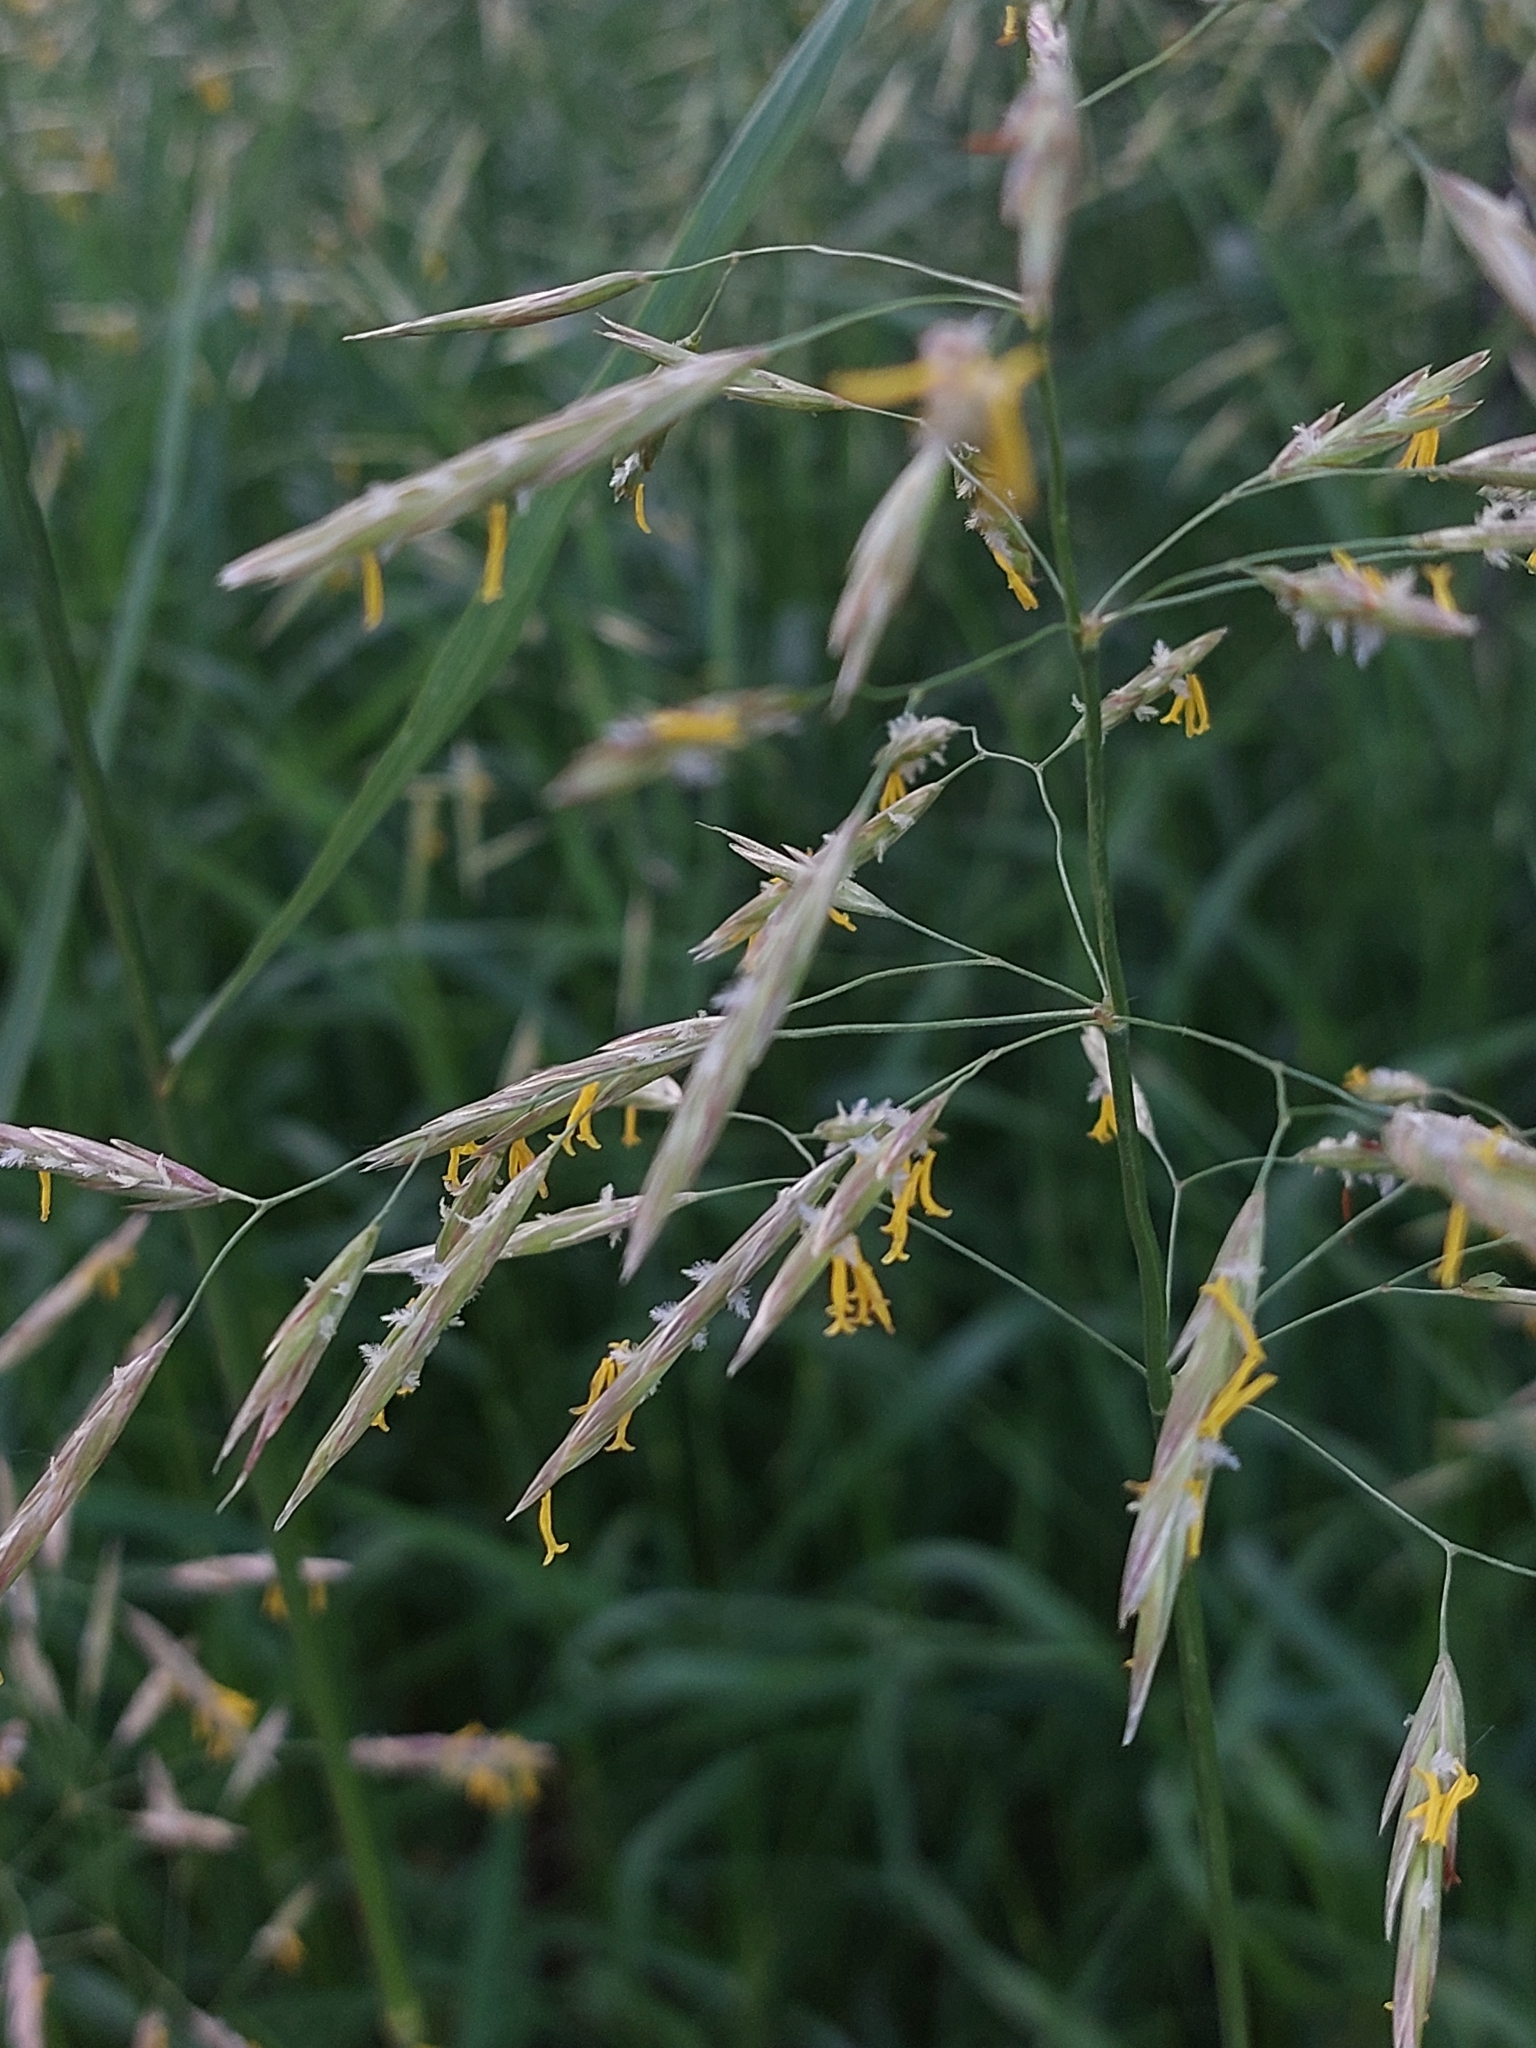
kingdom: Plantae
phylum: Tracheophyta
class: Liliopsida
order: Poales
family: Poaceae
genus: Bromus
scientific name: Bromus inermis
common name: Smooth brome
